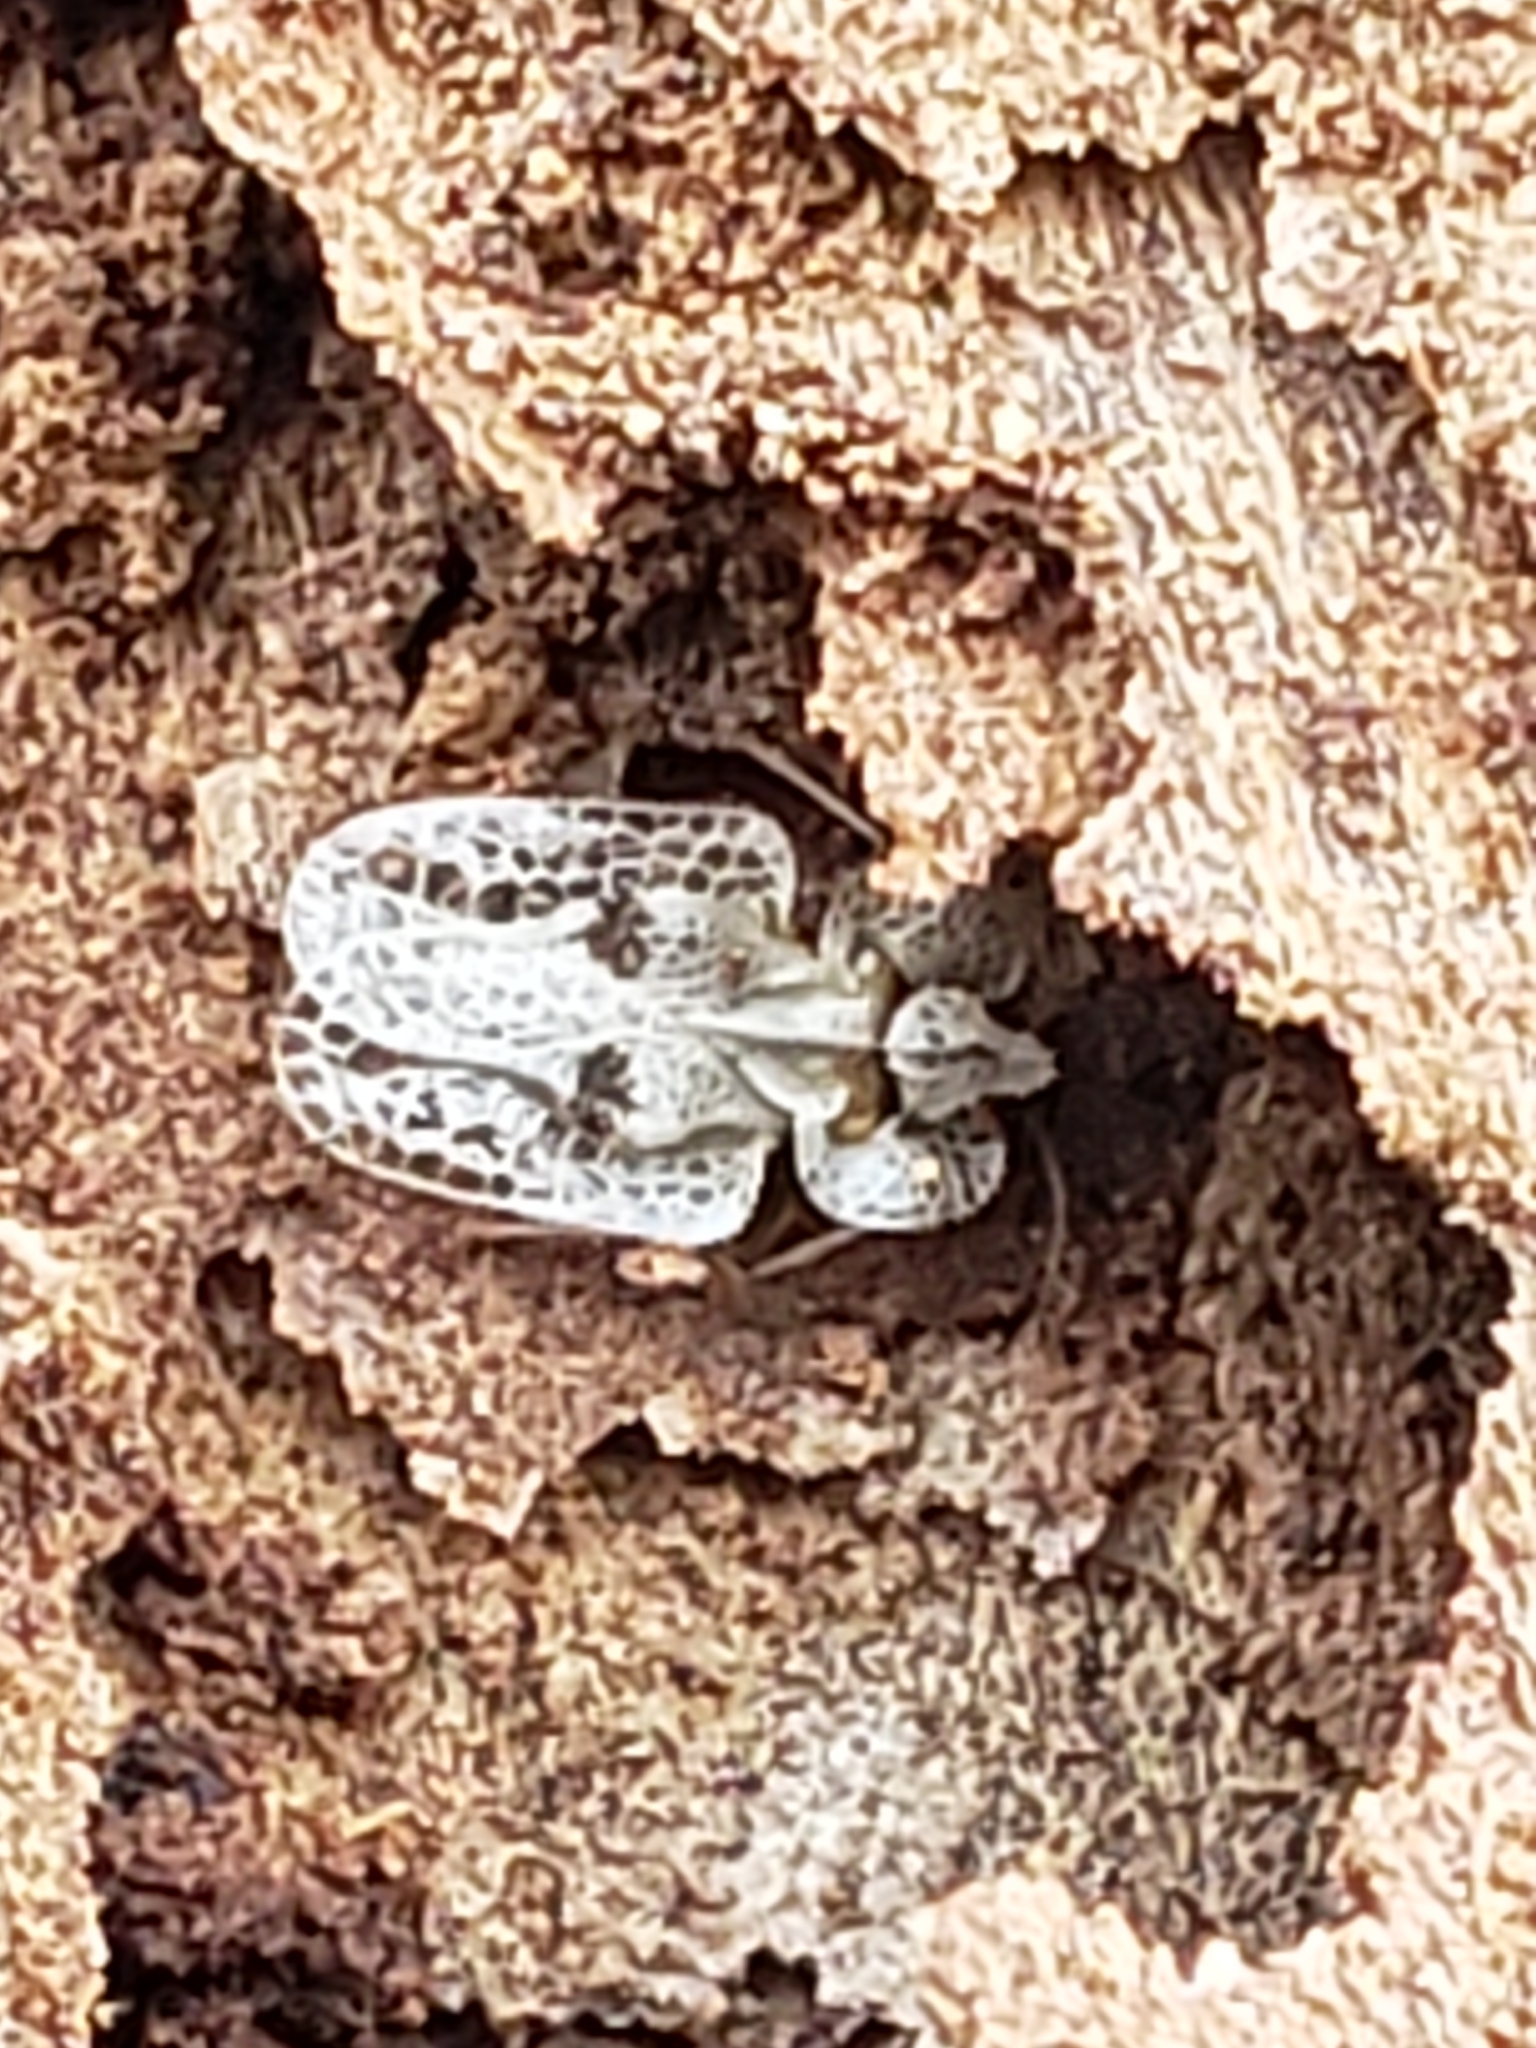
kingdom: Animalia
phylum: Arthropoda
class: Insecta
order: Hemiptera
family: Tingidae
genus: Corythucha
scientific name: Corythucha ciliata
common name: Sycamore lace bug
